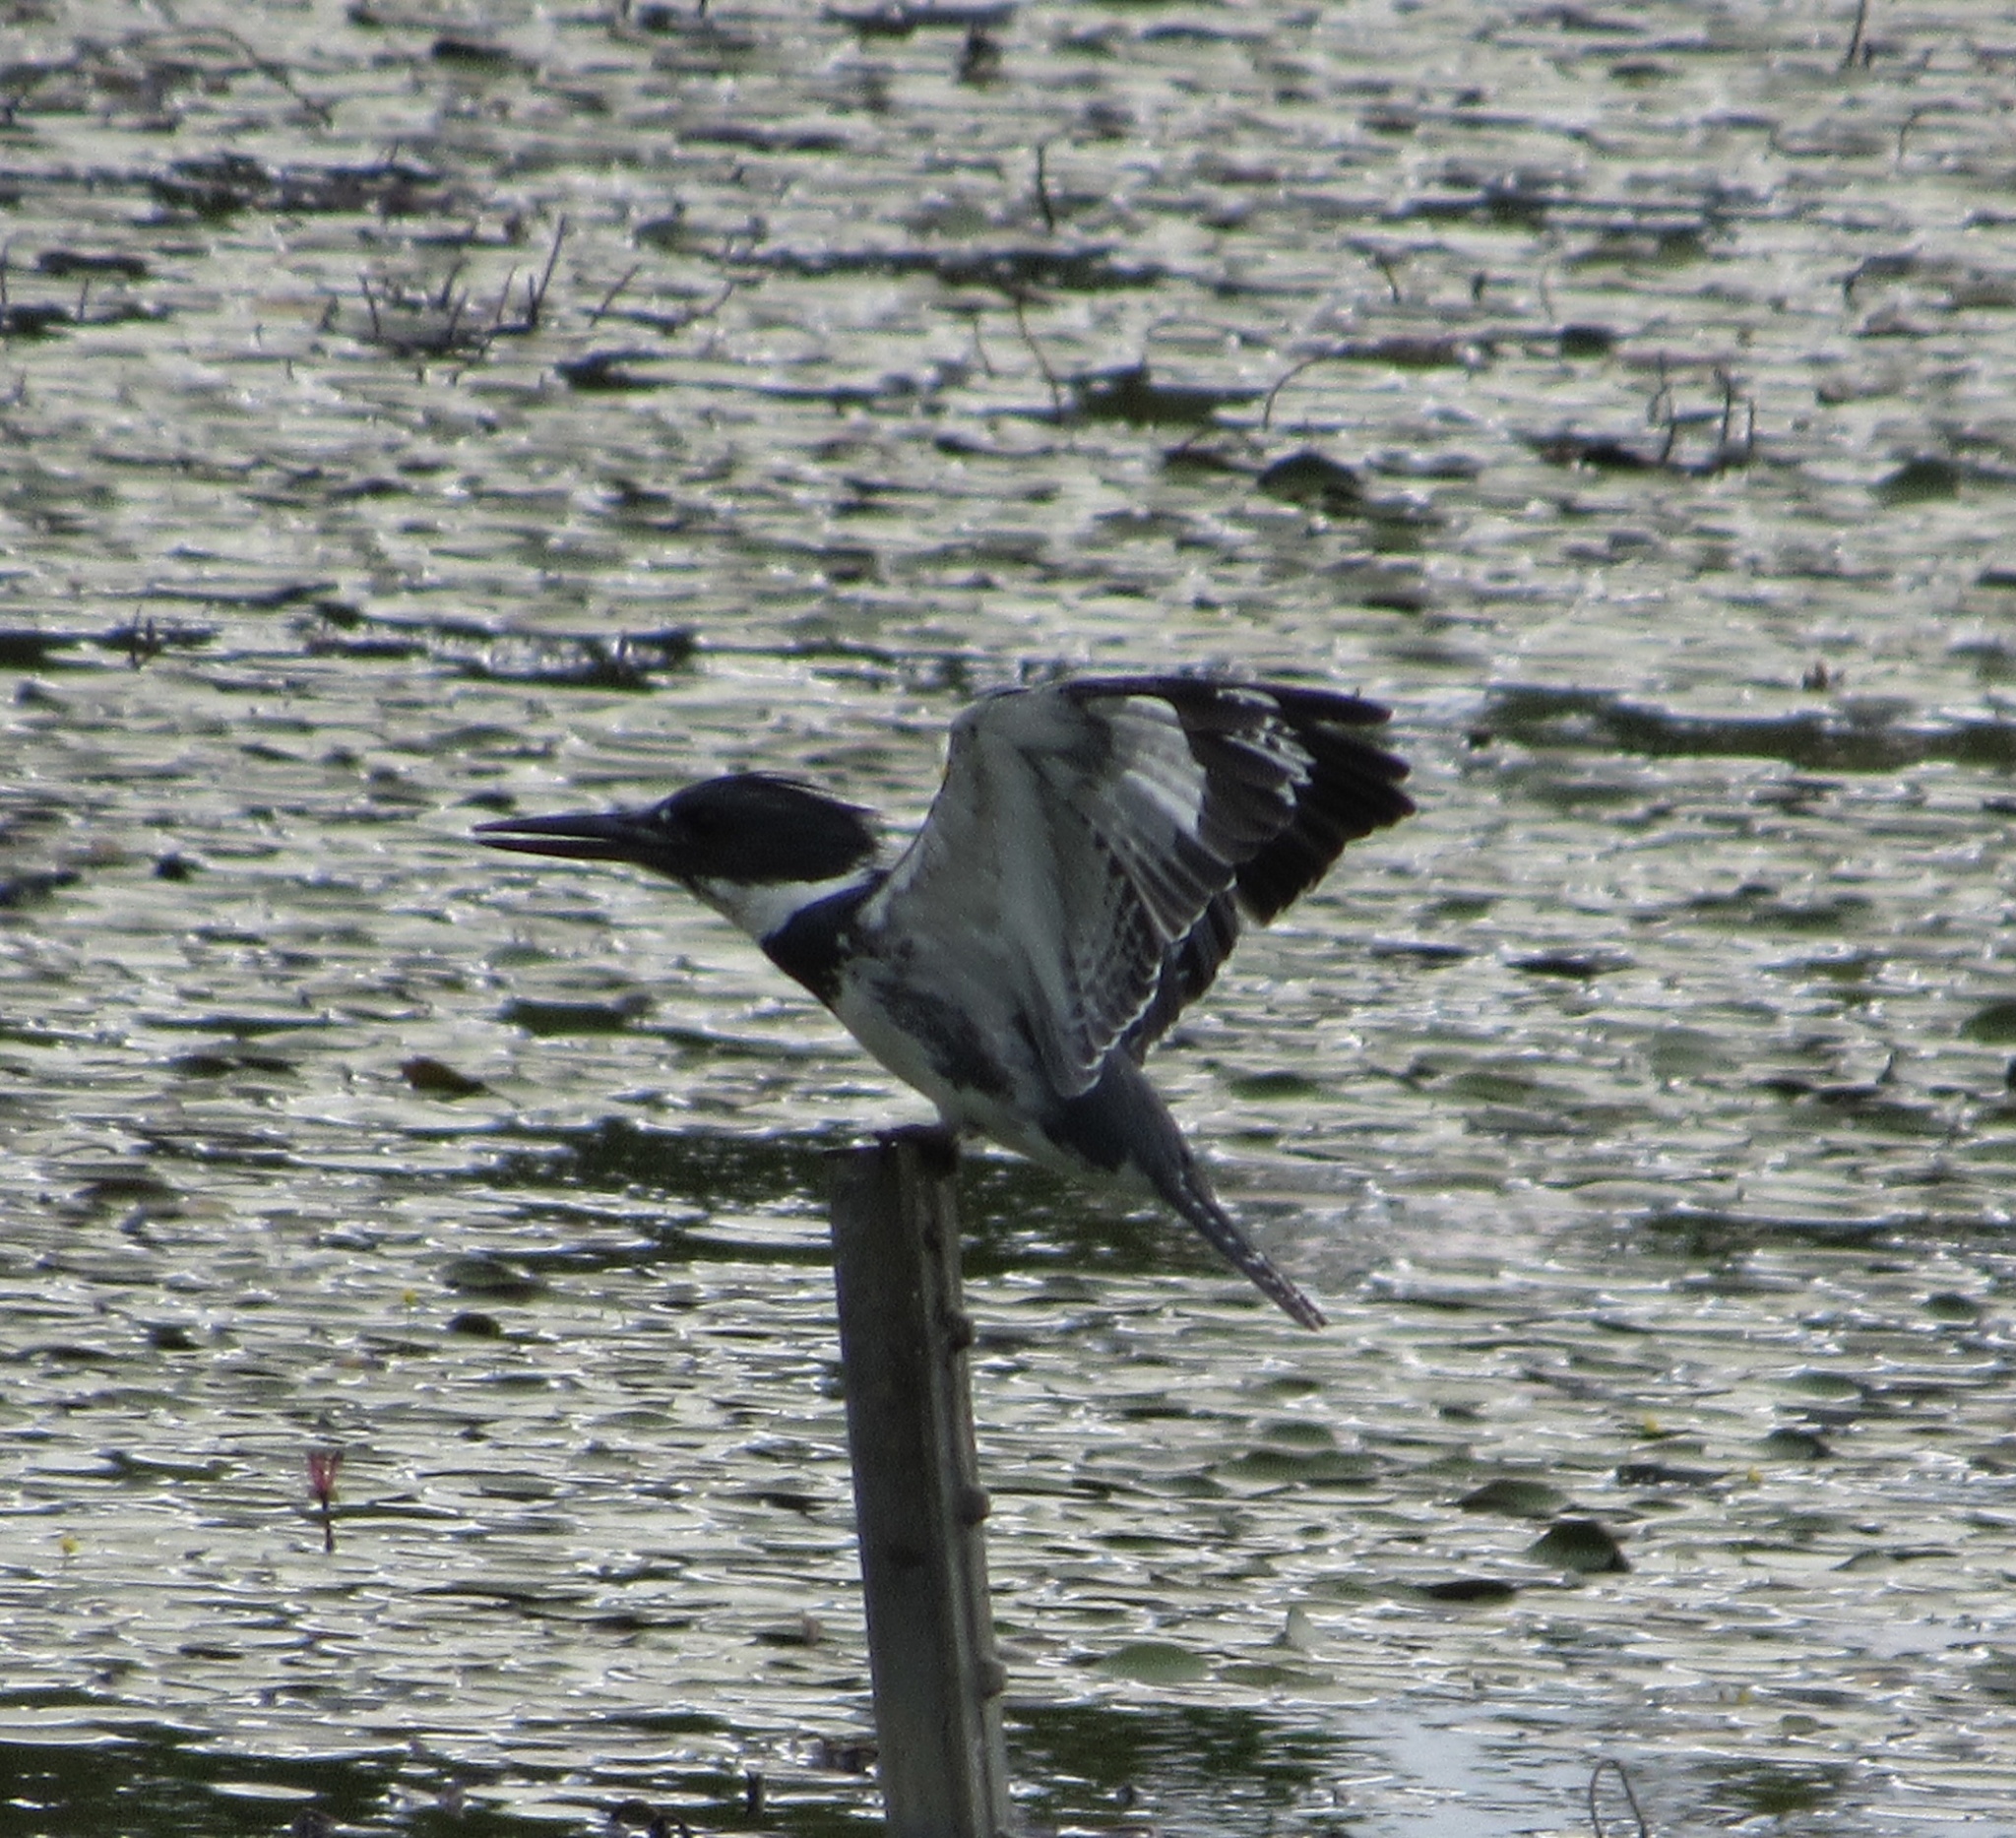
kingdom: Animalia
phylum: Chordata
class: Aves
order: Coraciiformes
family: Alcedinidae
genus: Megaceryle
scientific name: Megaceryle alcyon
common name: Belted kingfisher
